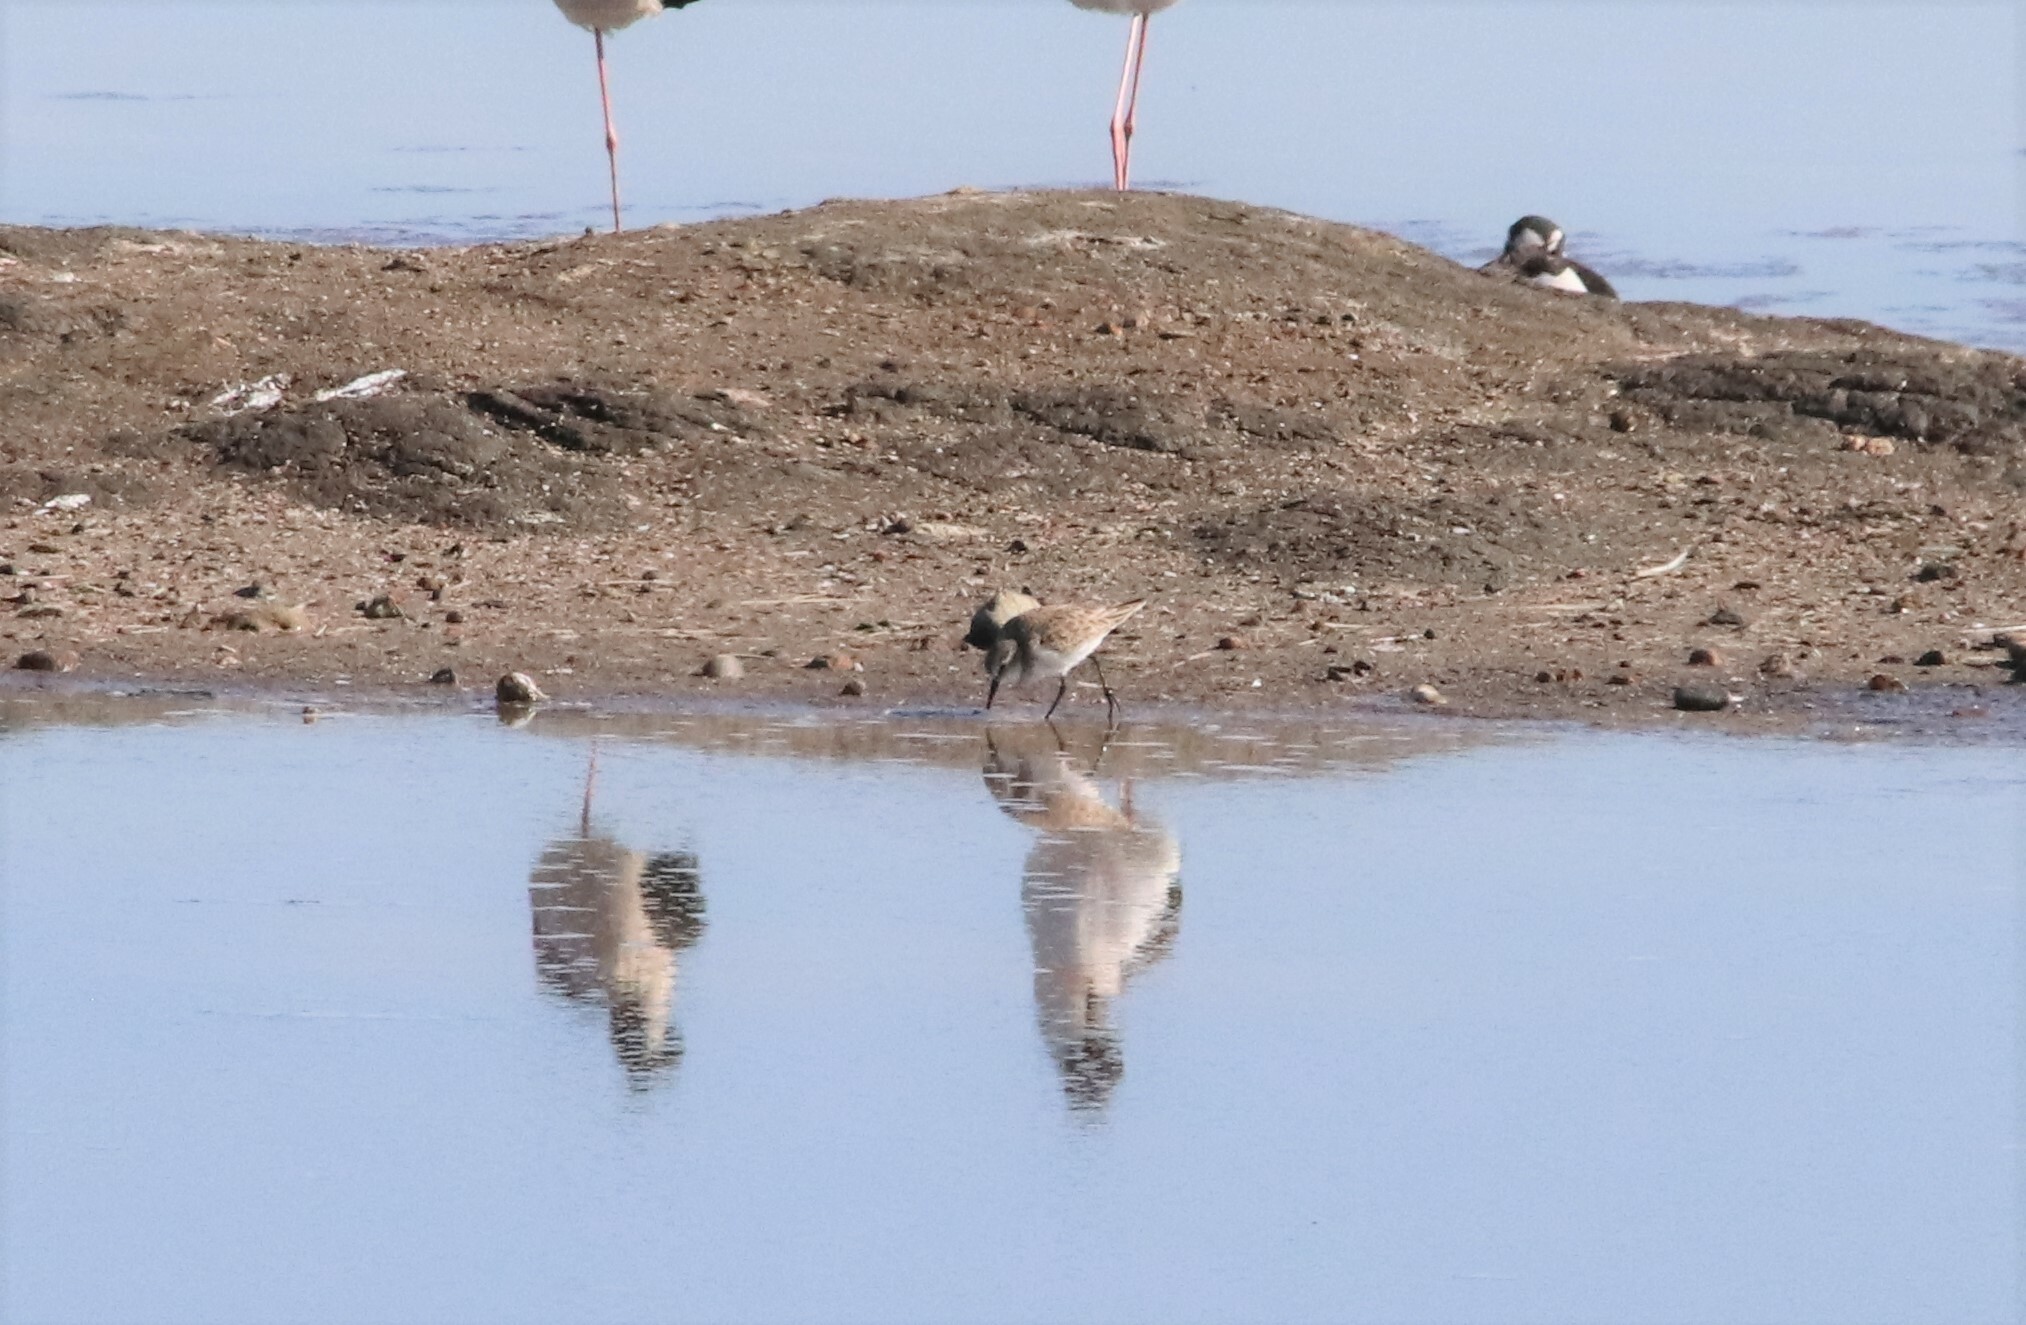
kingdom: Animalia
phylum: Chordata
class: Aves
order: Charadriiformes
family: Scolopacidae
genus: Calidris
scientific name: Calidris minuta
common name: Little stint
